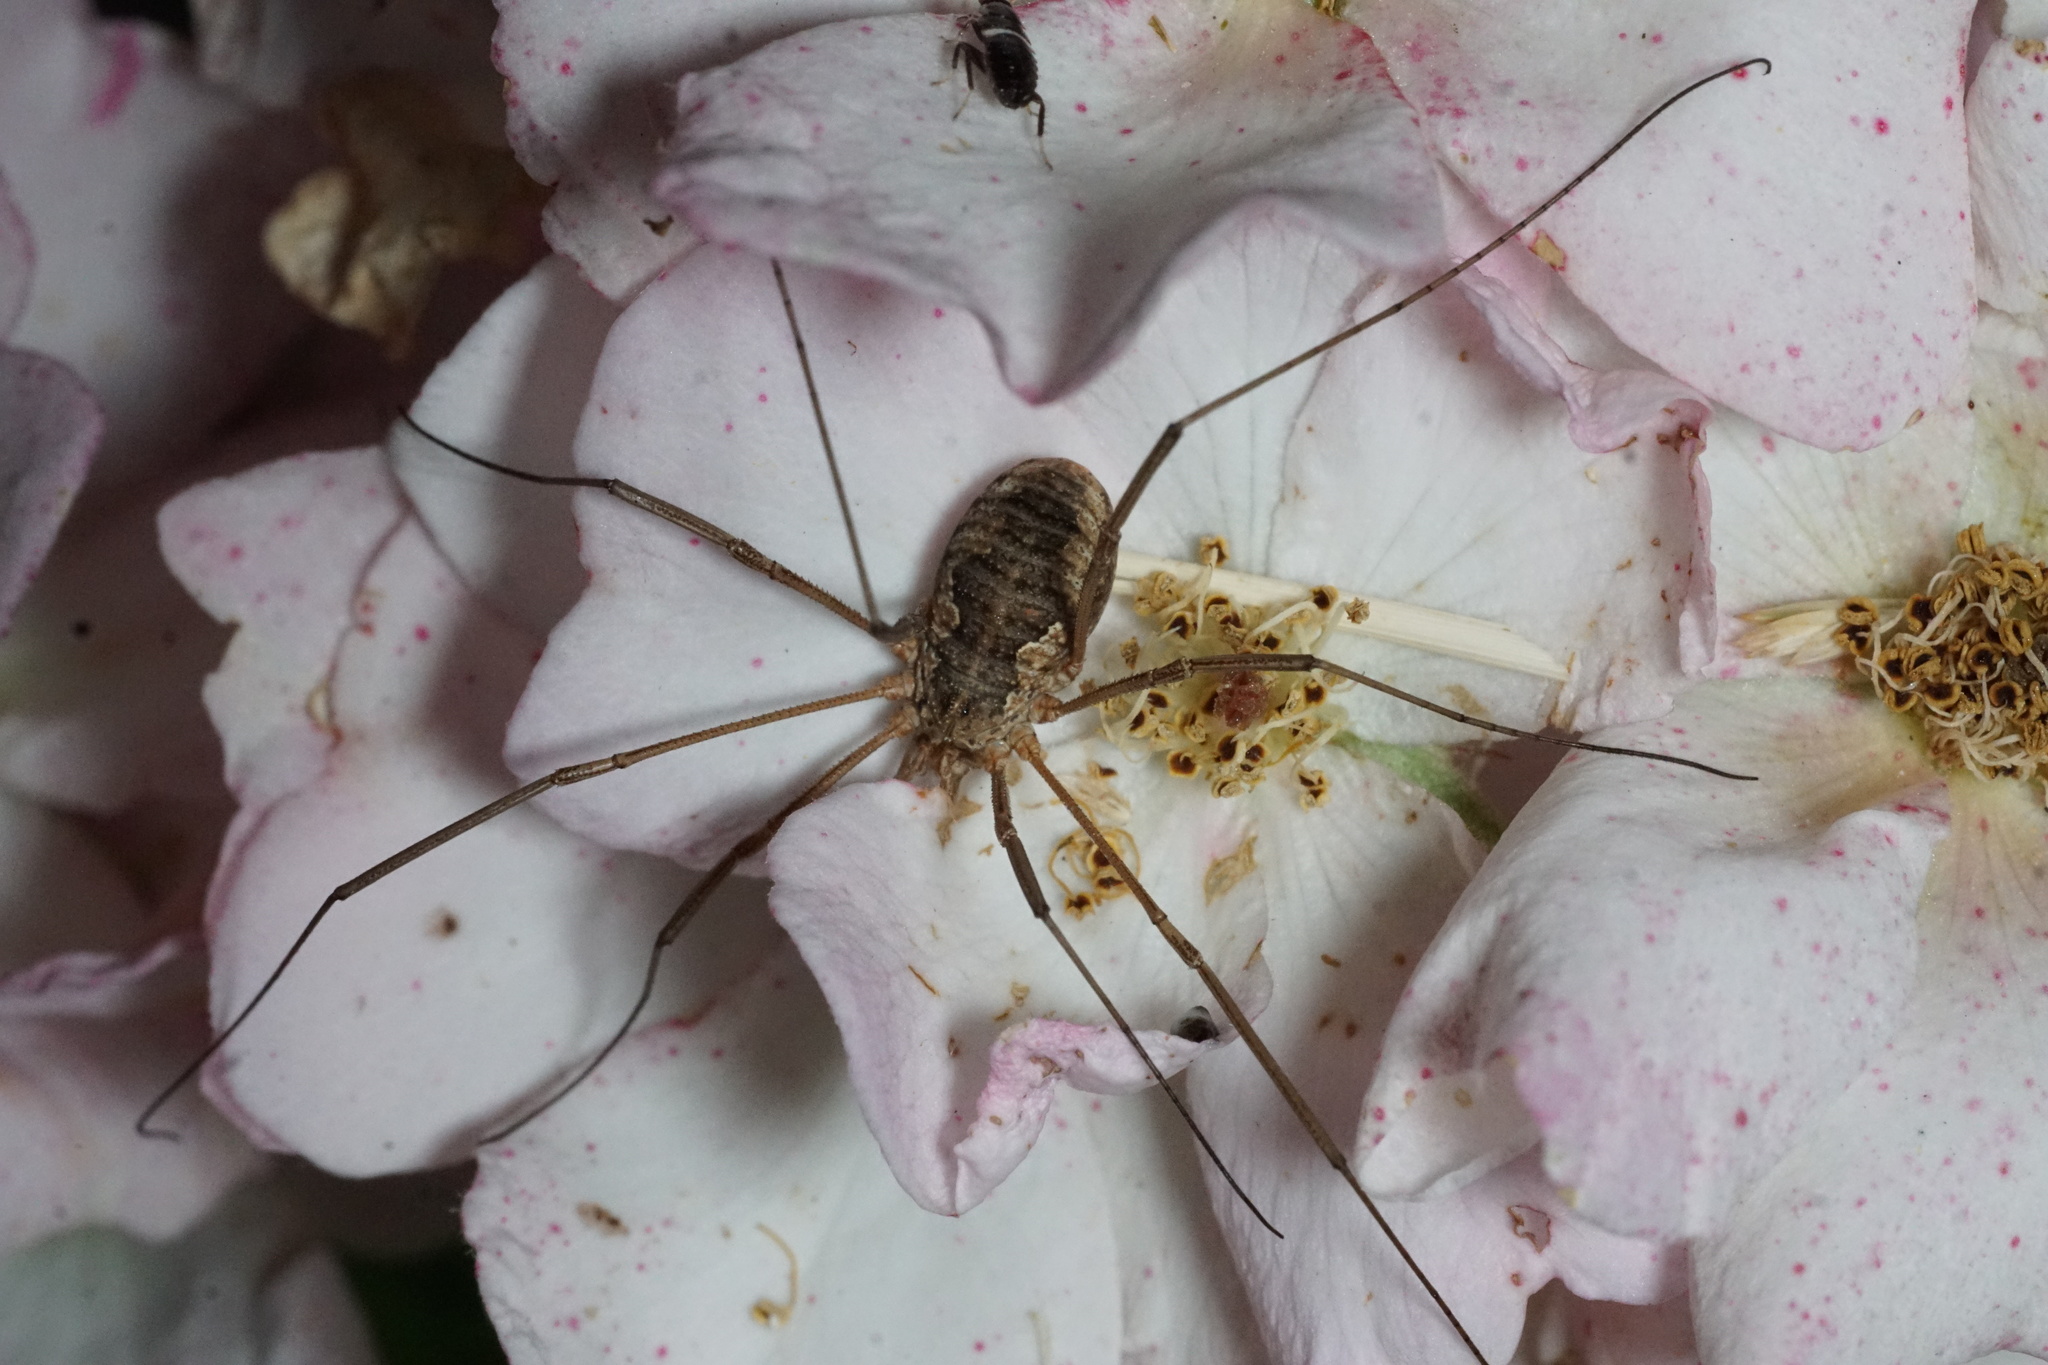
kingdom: Animalia
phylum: Arthropoda
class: Arachnida
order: Opiliones
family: Phalangiidae
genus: Phalangium
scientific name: Phalangium opilio
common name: Daddy longleg
